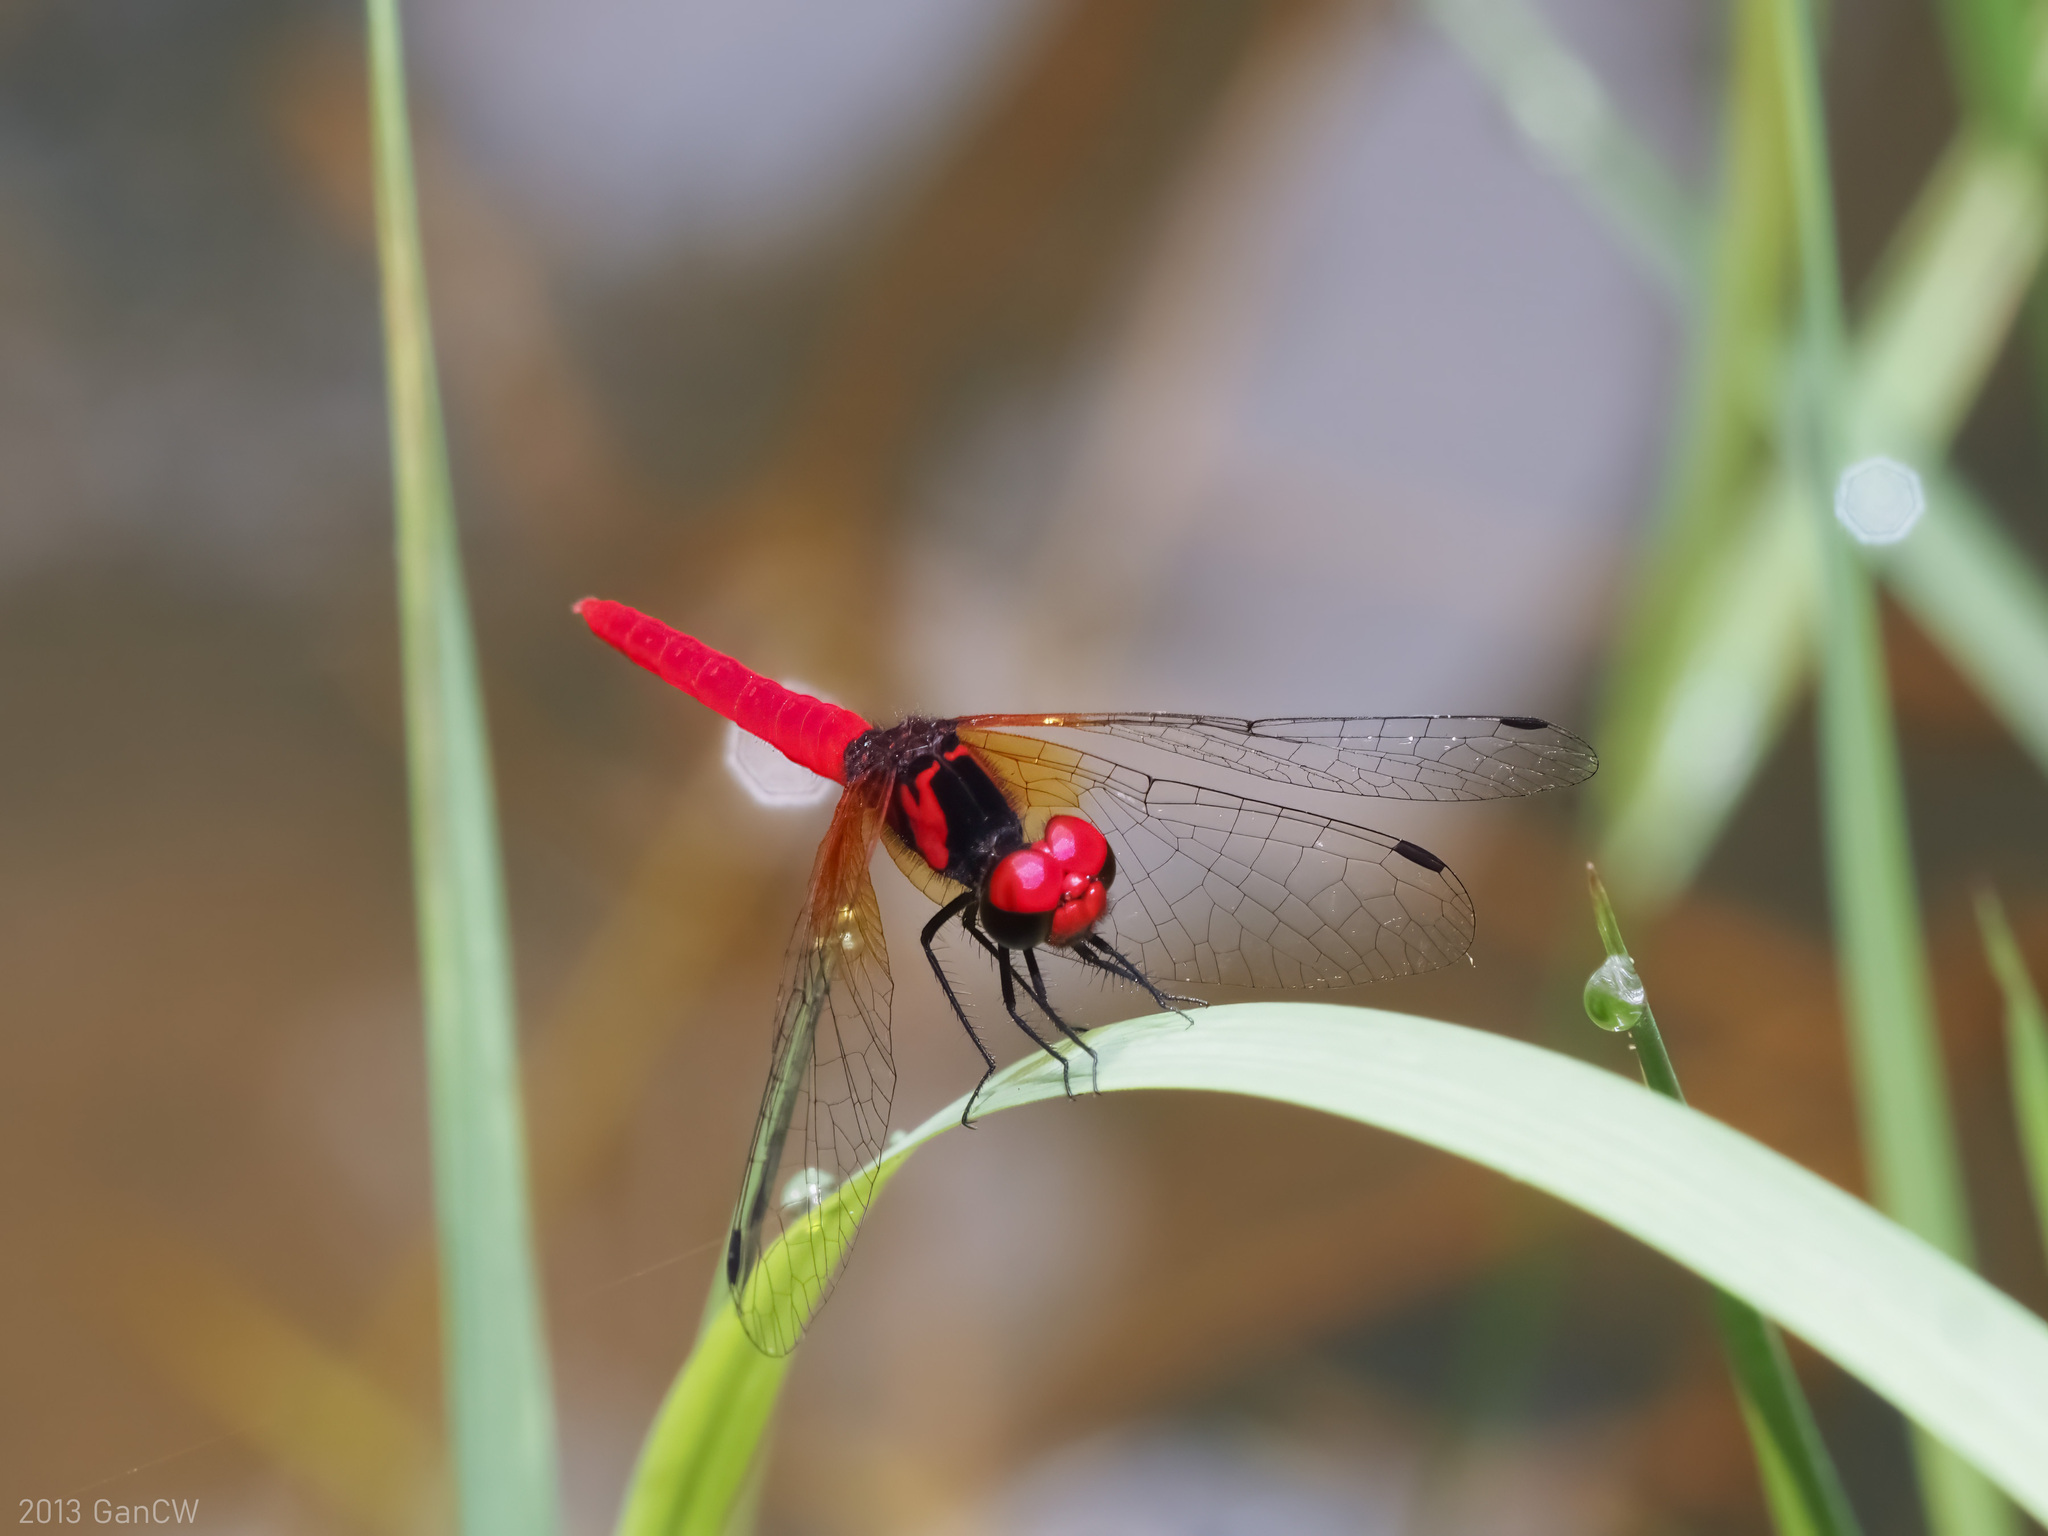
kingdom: Animalia
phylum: Arthropoda
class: Insecta
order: Odonata
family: Libellulidae
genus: Nannophya
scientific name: Nannophya pygmaea
